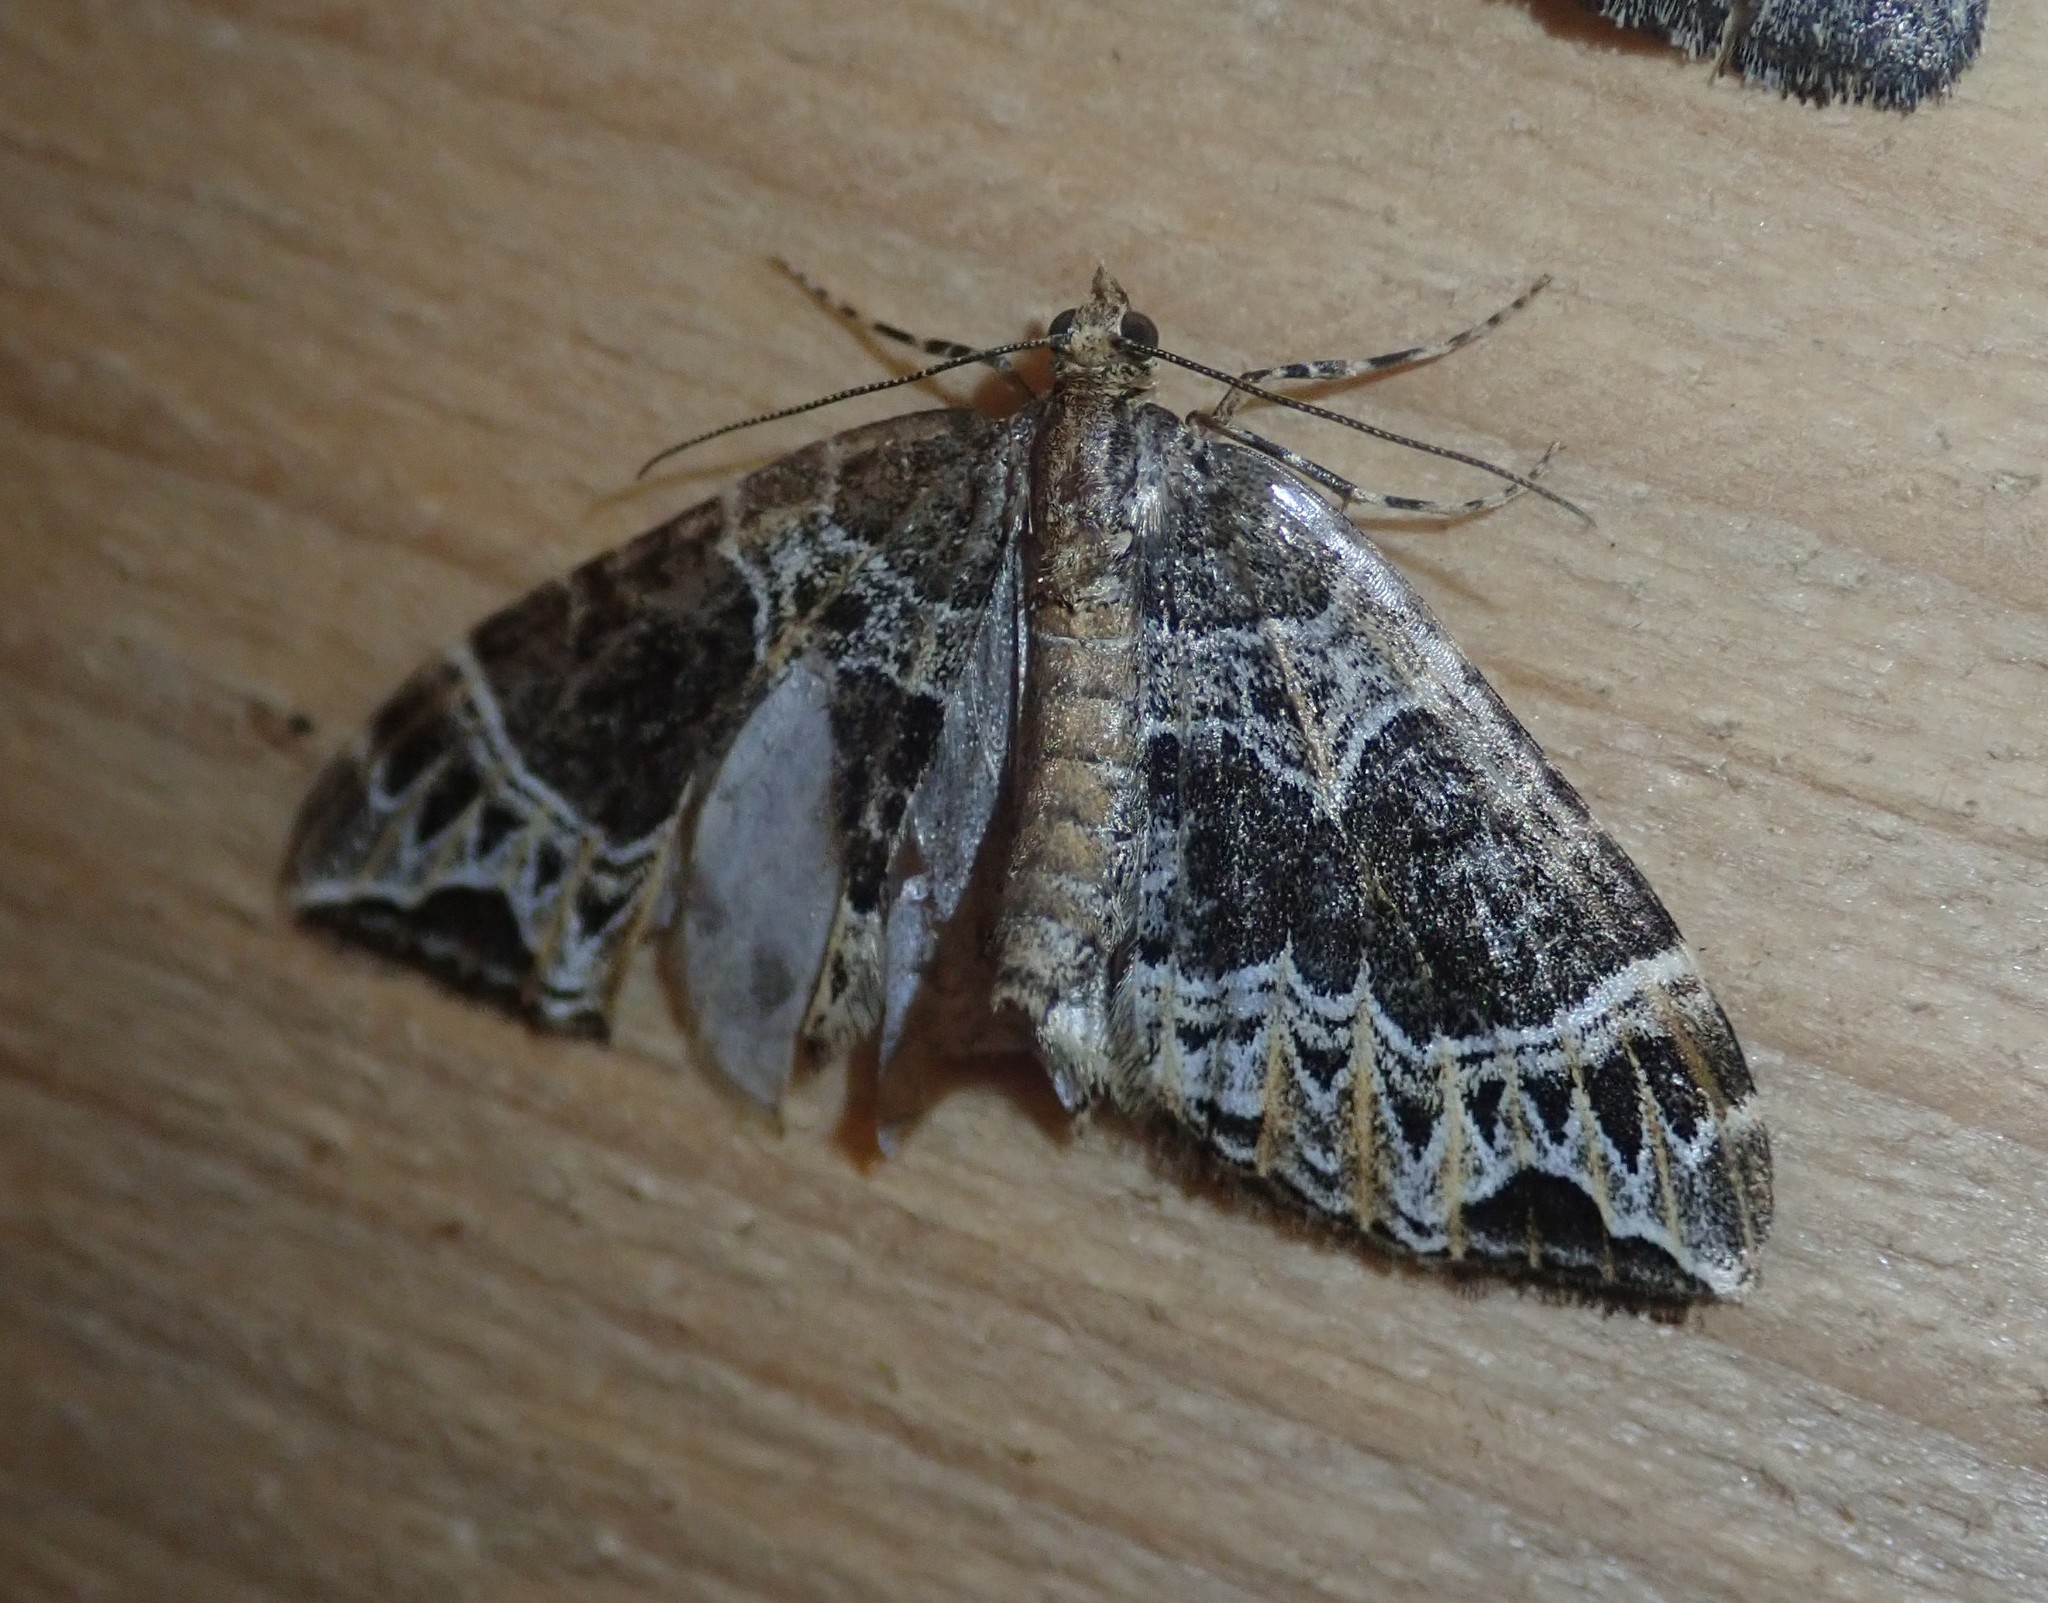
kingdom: Animalia
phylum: Arthropoda
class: Insecta
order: Lepidoptera
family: Geometridae
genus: Ecliptopera
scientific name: Ecliptopera silaceata
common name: Small phoenix
